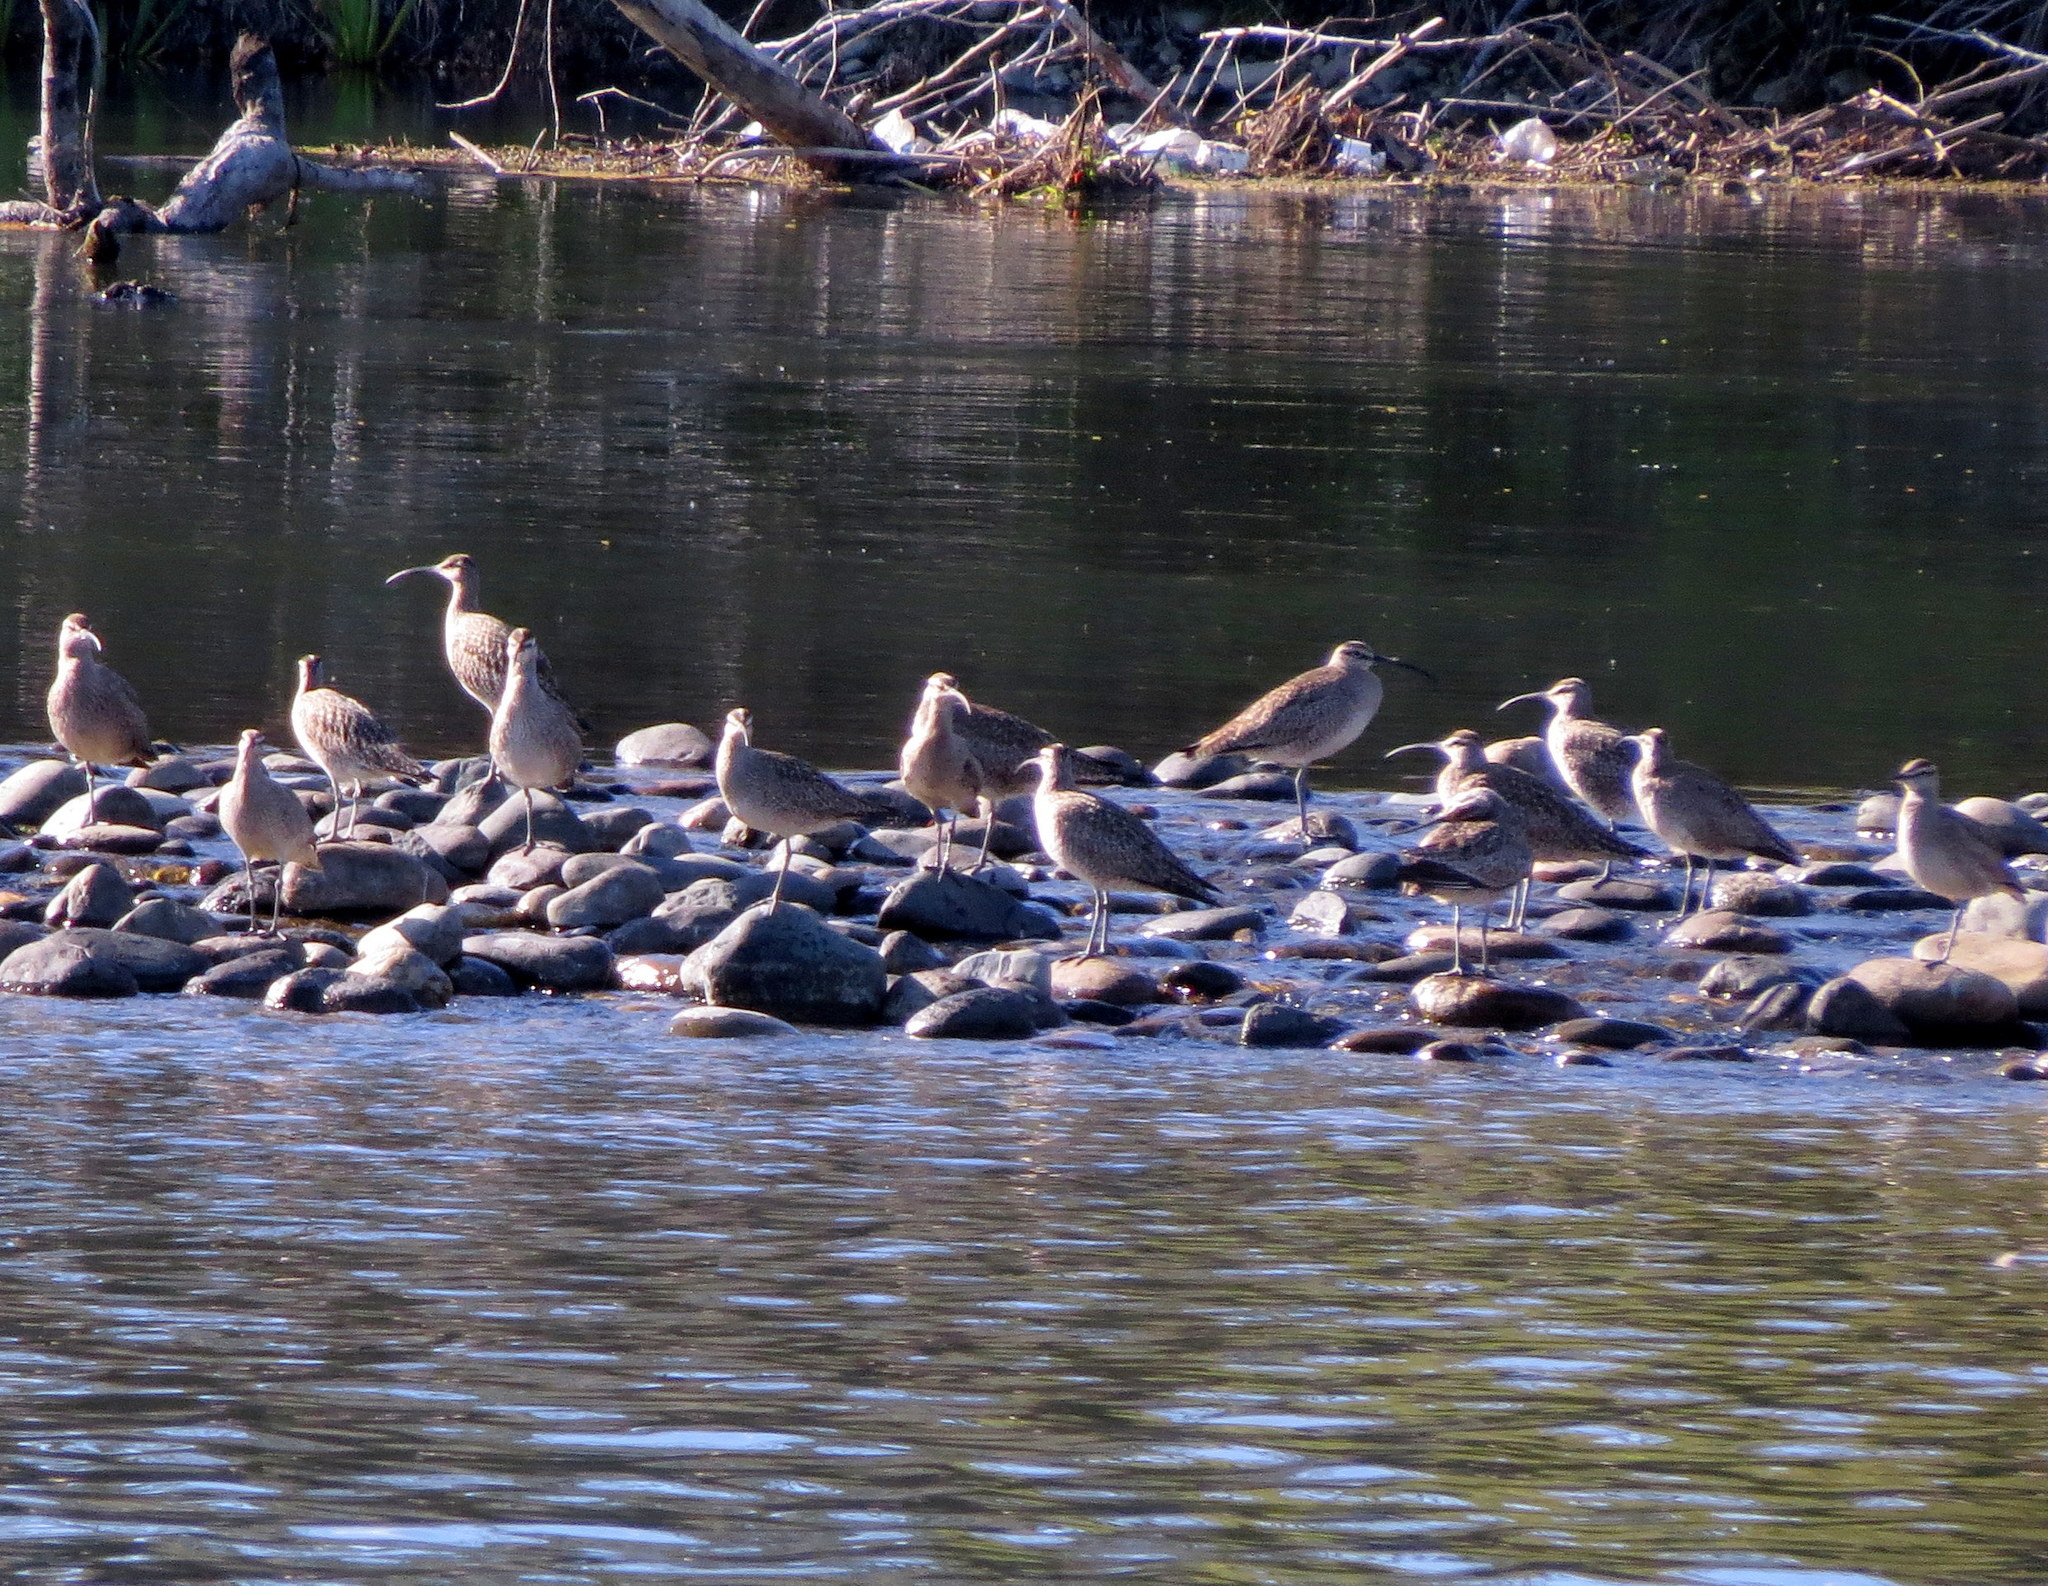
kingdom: Animalia
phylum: Chordata
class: Aves
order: Charadriiformes
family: Scolopacidae
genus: Numenius
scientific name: Numenius phaeopus
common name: Whimbrel
